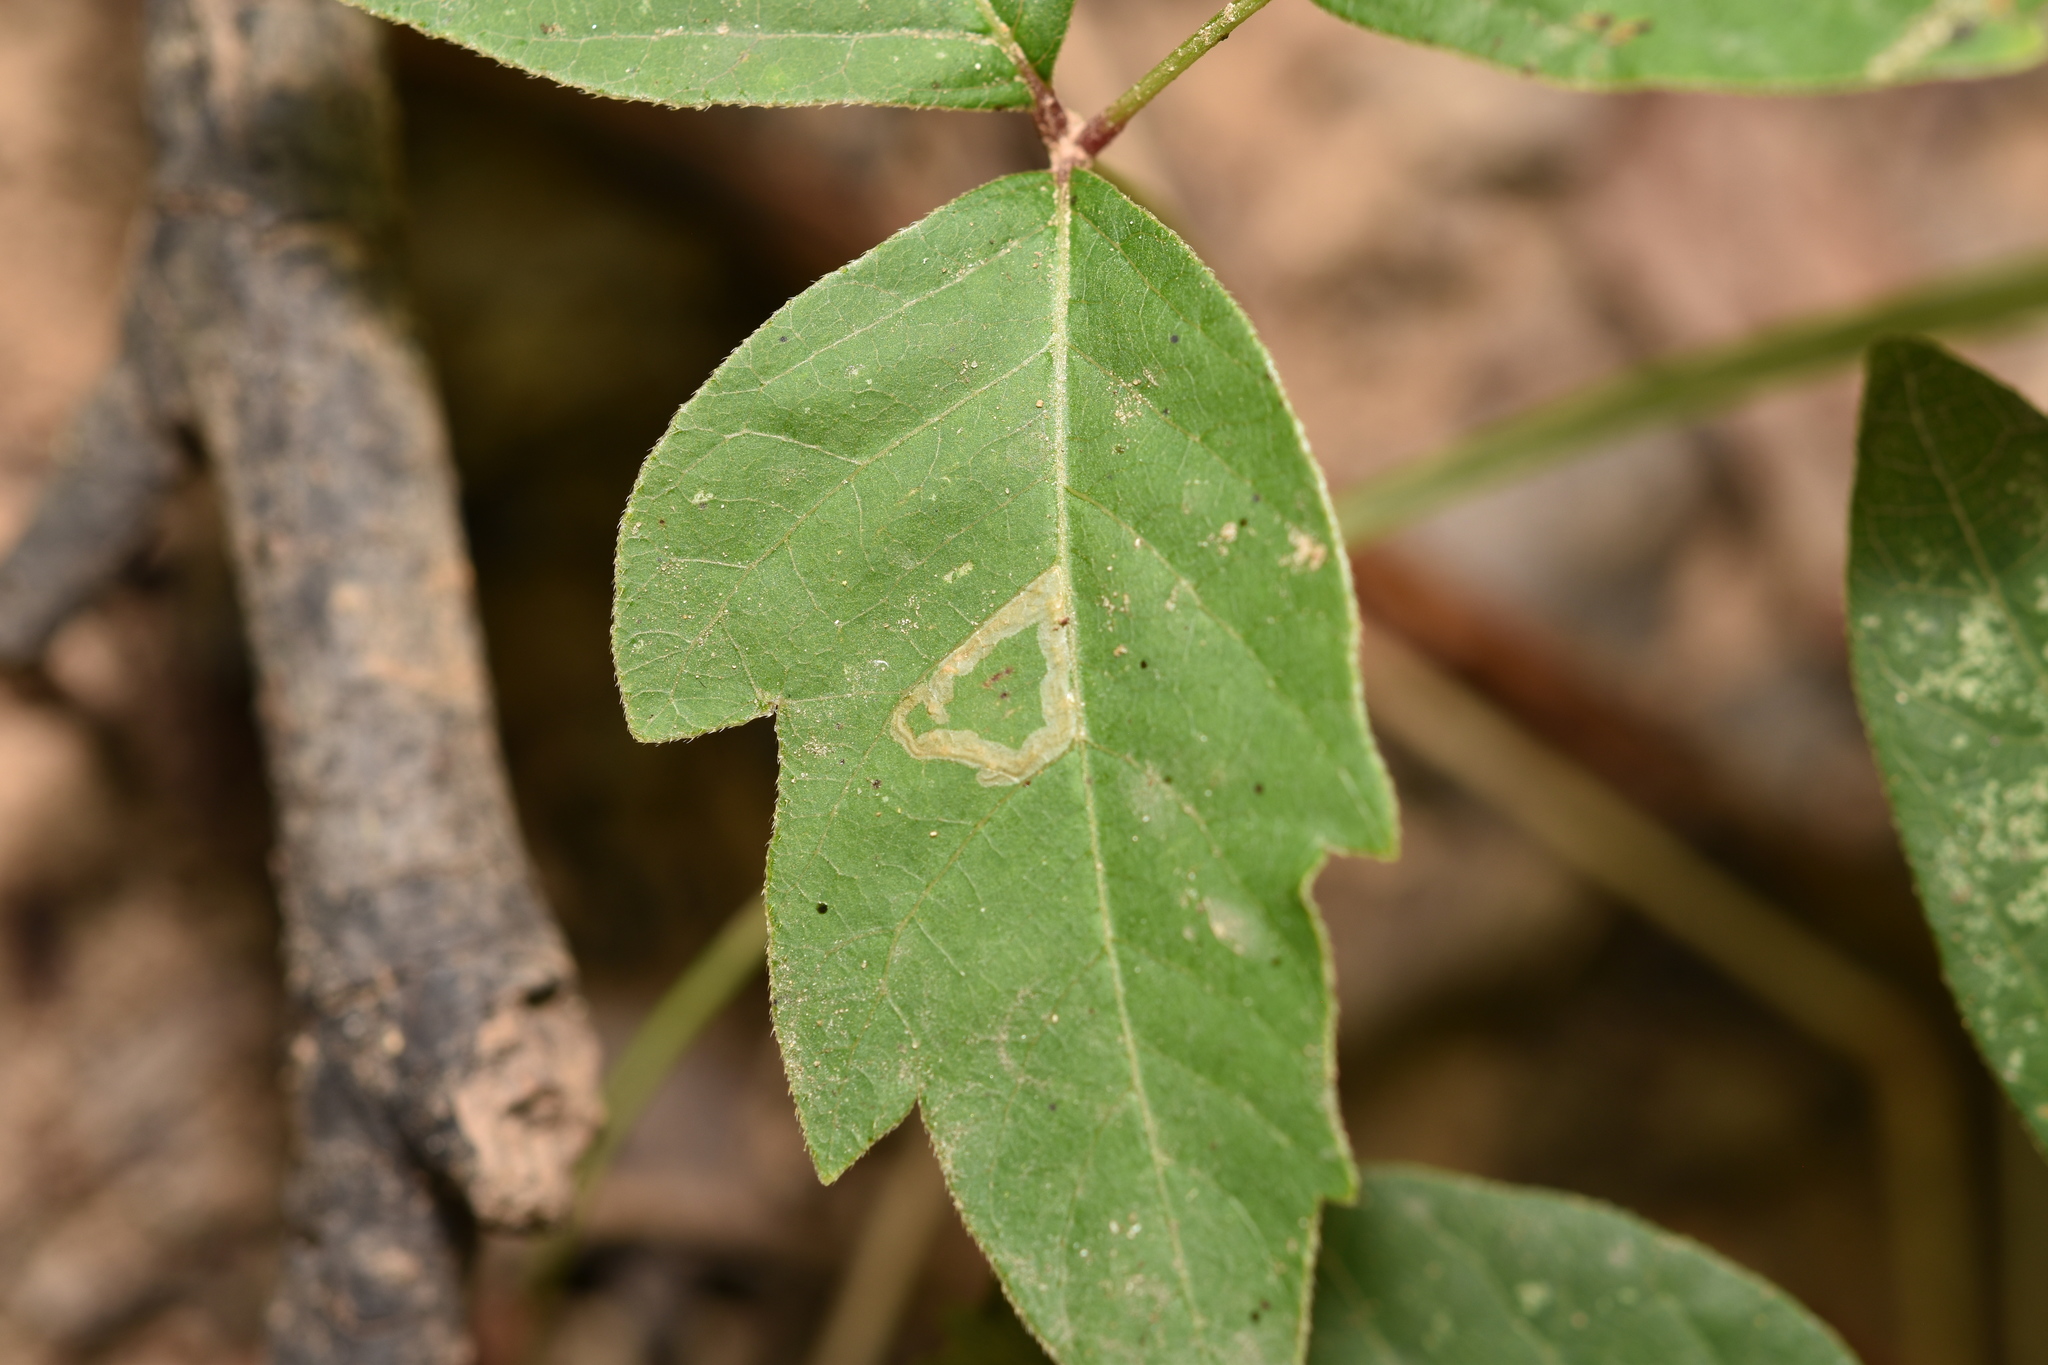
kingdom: Animalia
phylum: Arthropoda
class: Insecta
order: Lepidoptera
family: Gracillariidae
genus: Caloptilia
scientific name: Caloptilia rhoifoliella
